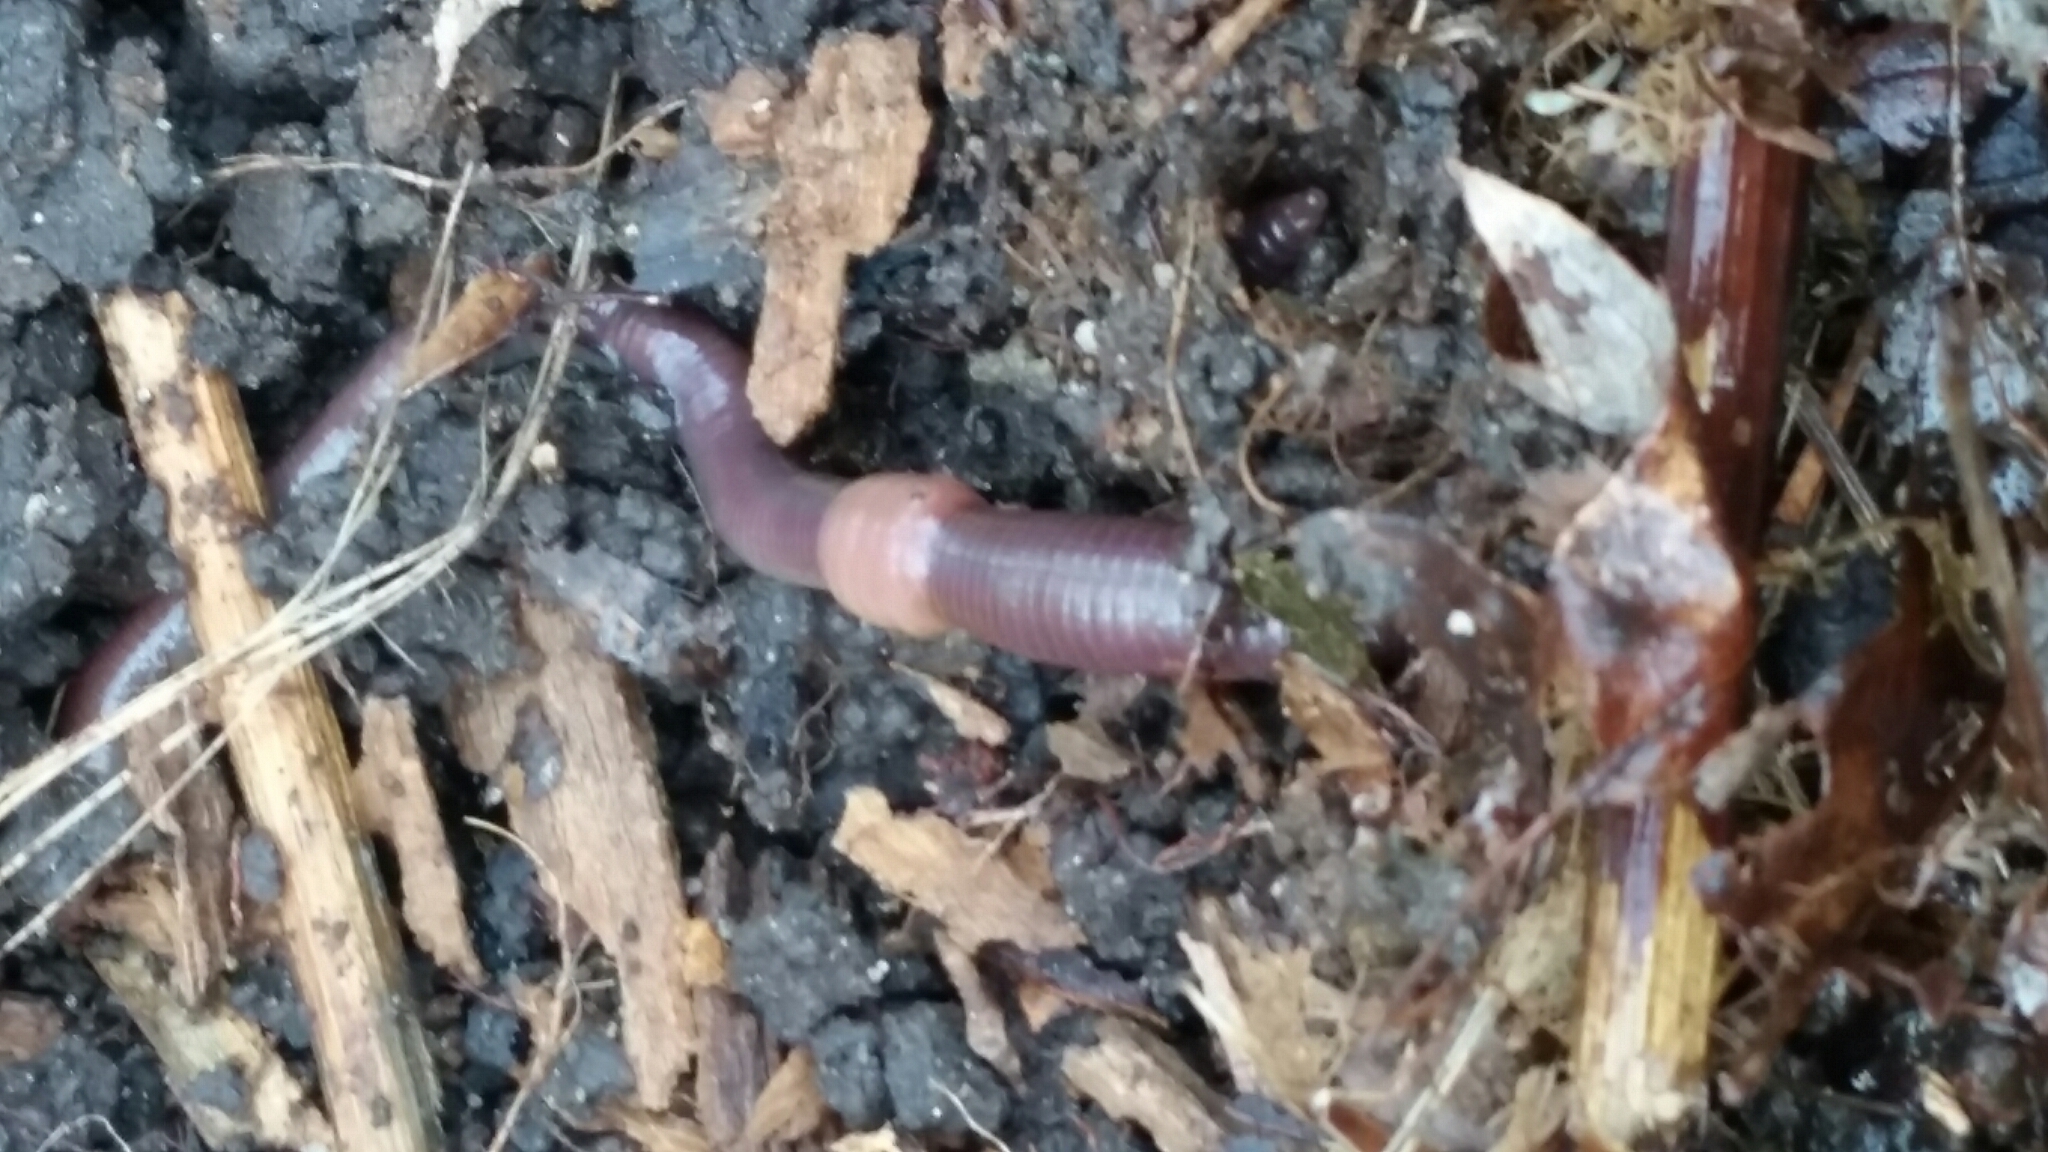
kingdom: Animalia
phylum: Annelida
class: Clitellata
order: Crassiclitellata
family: Lumbricidae
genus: Lumbricus
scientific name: Lumbricus terrestris
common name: Common earthworm
